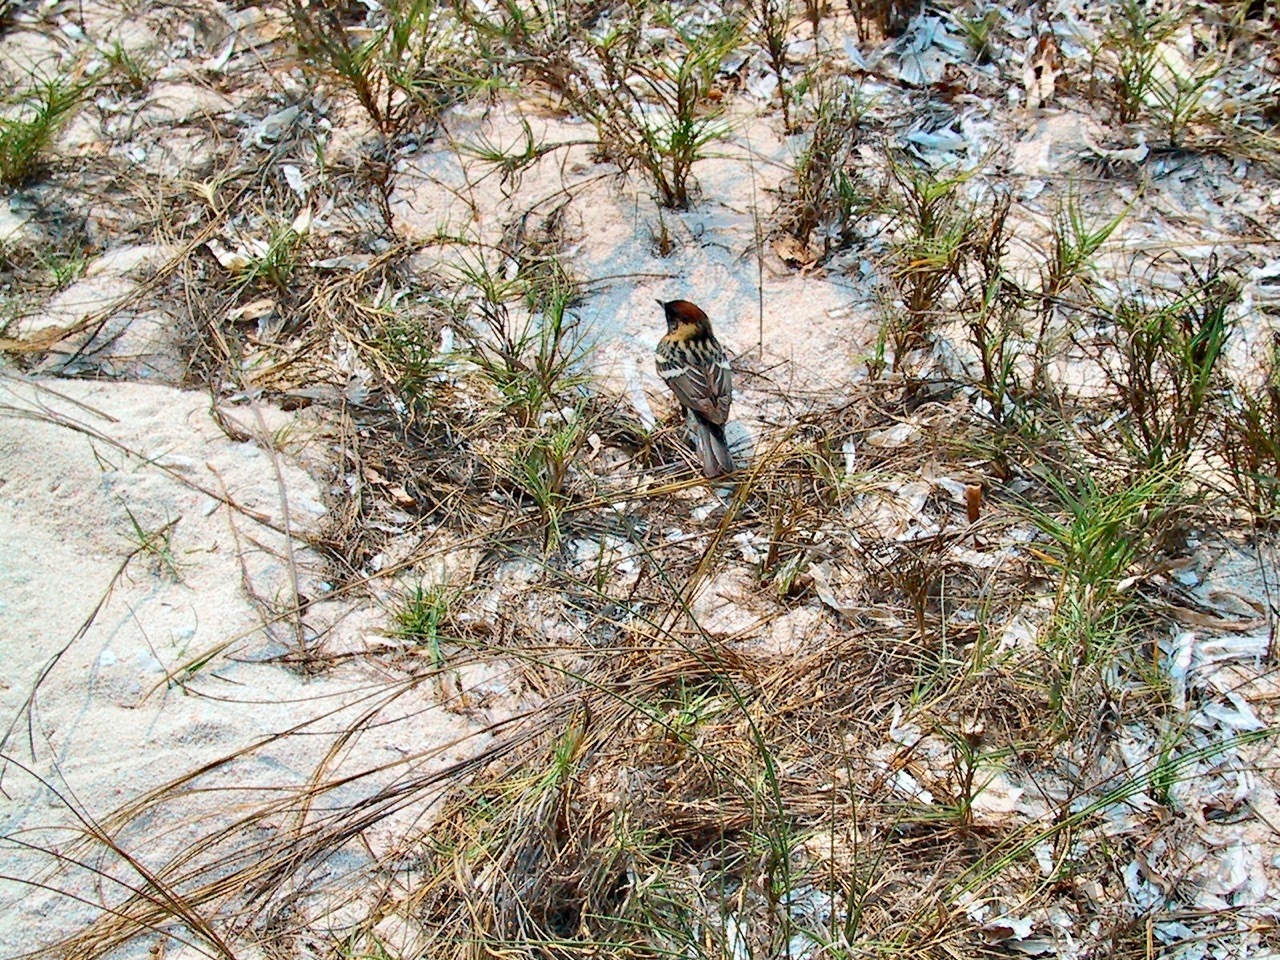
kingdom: Animalia
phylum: Chordata
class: Aves
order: Passeriformes
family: Parulidae
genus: Setophaga
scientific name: Setophaga castanea
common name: Bay-breasted warbler
